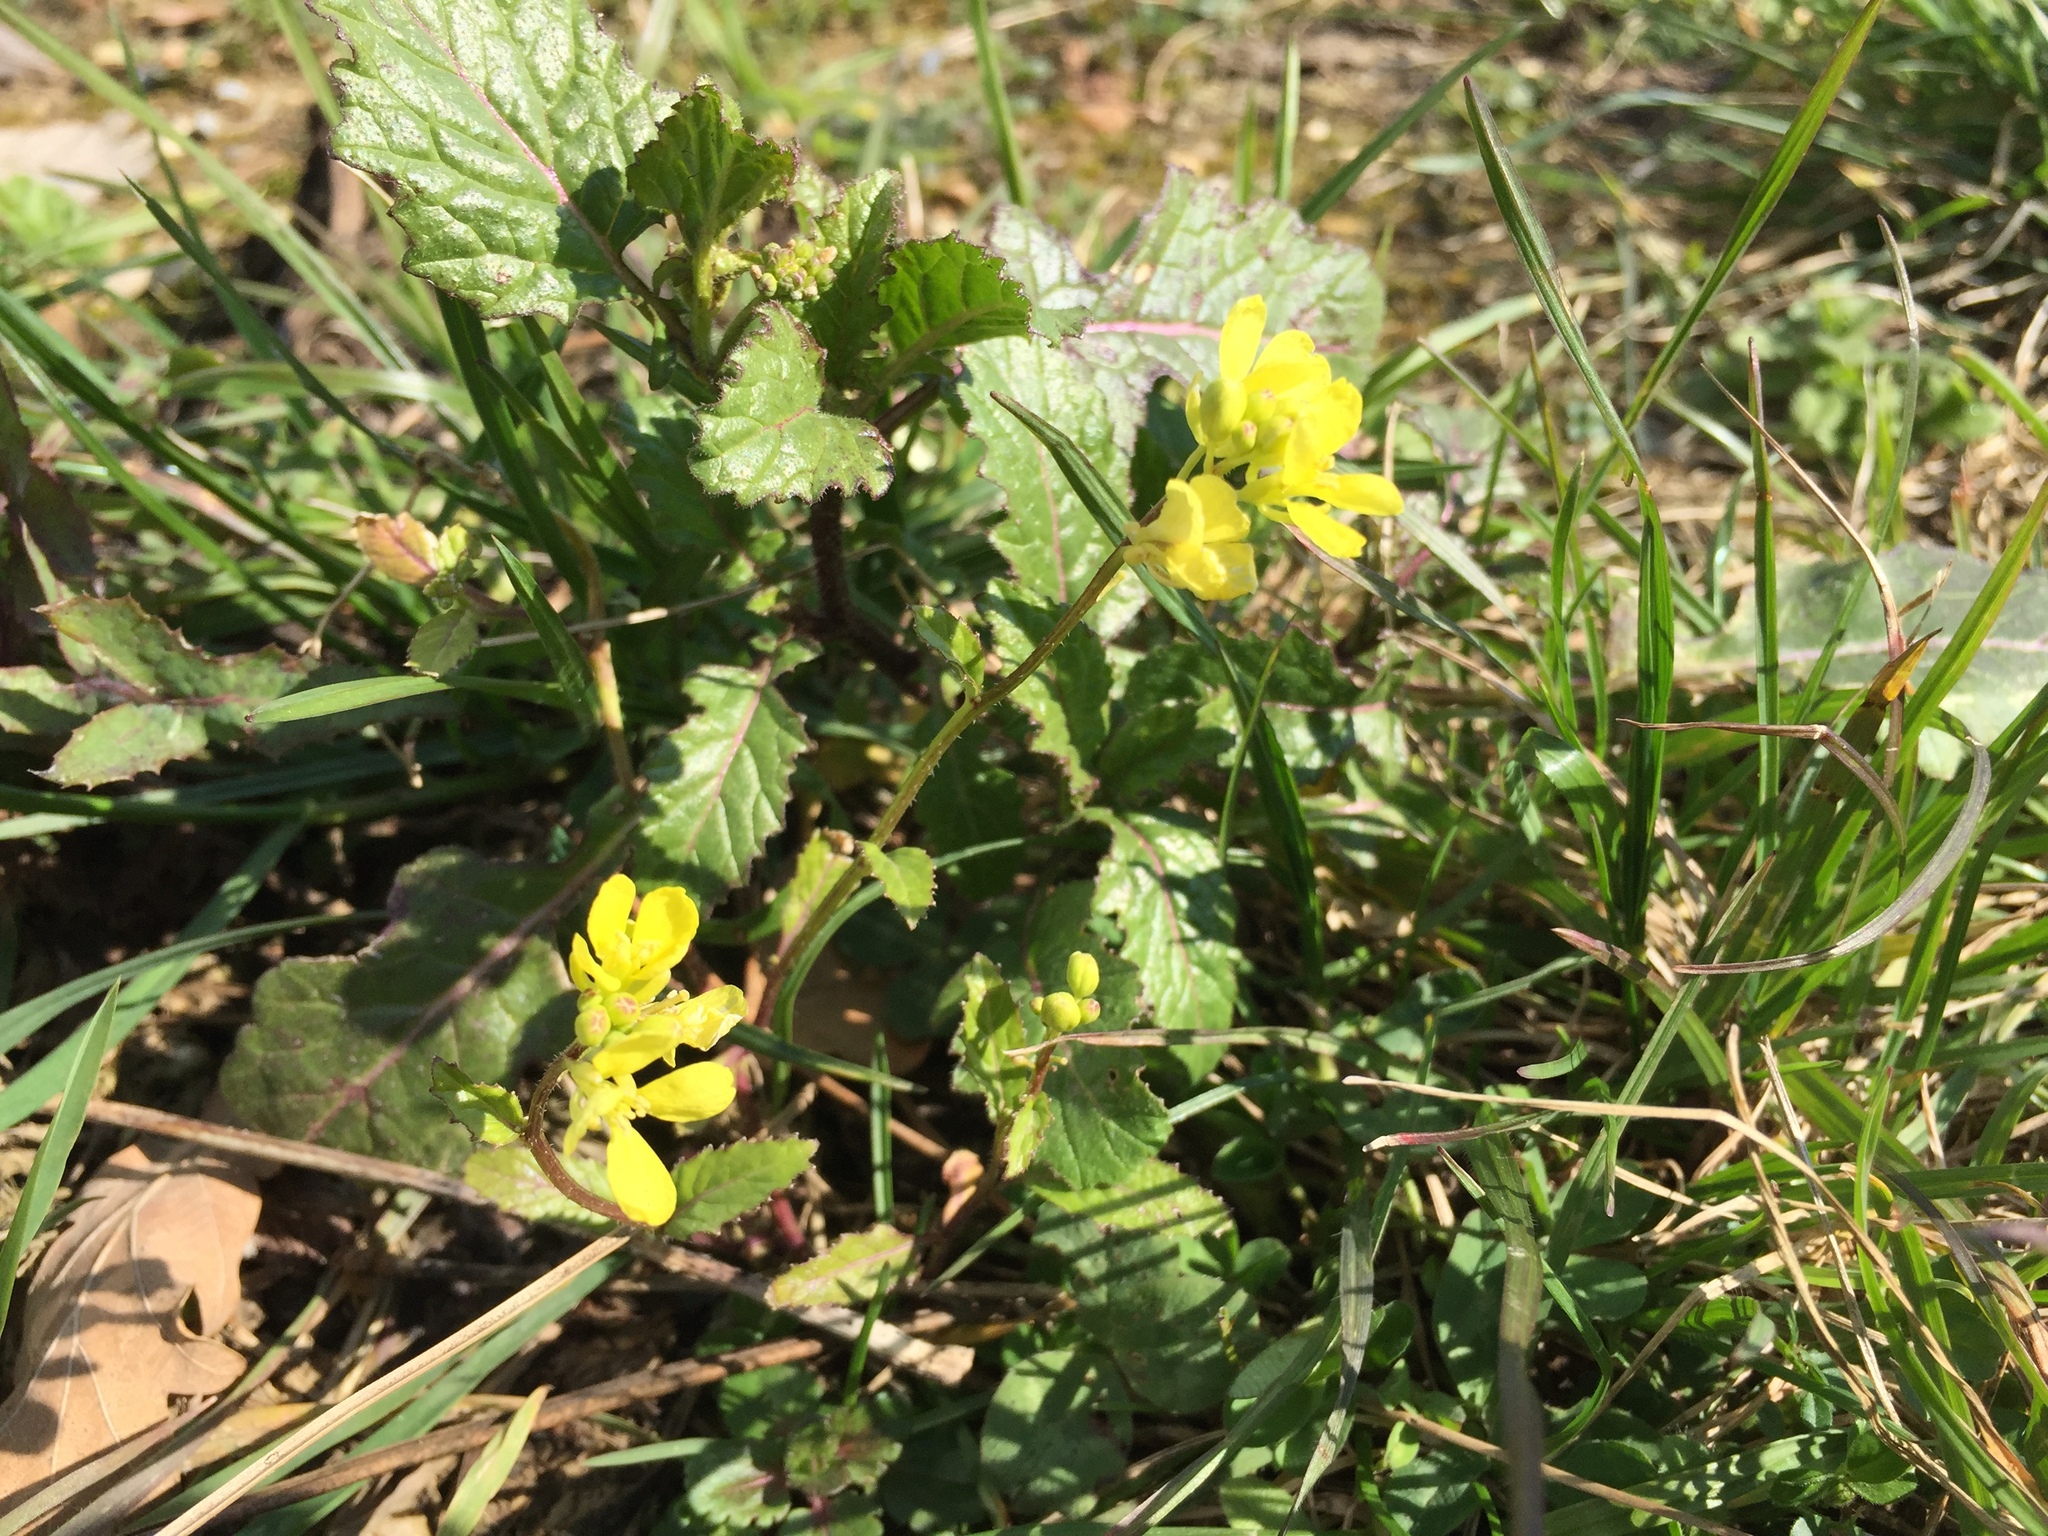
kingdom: Plantae
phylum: Tracheophyta
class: Magnoliopsida
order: Brassicales
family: Brassicaceae
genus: Sinapis
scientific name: Sinapis arvensis
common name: Charlock
